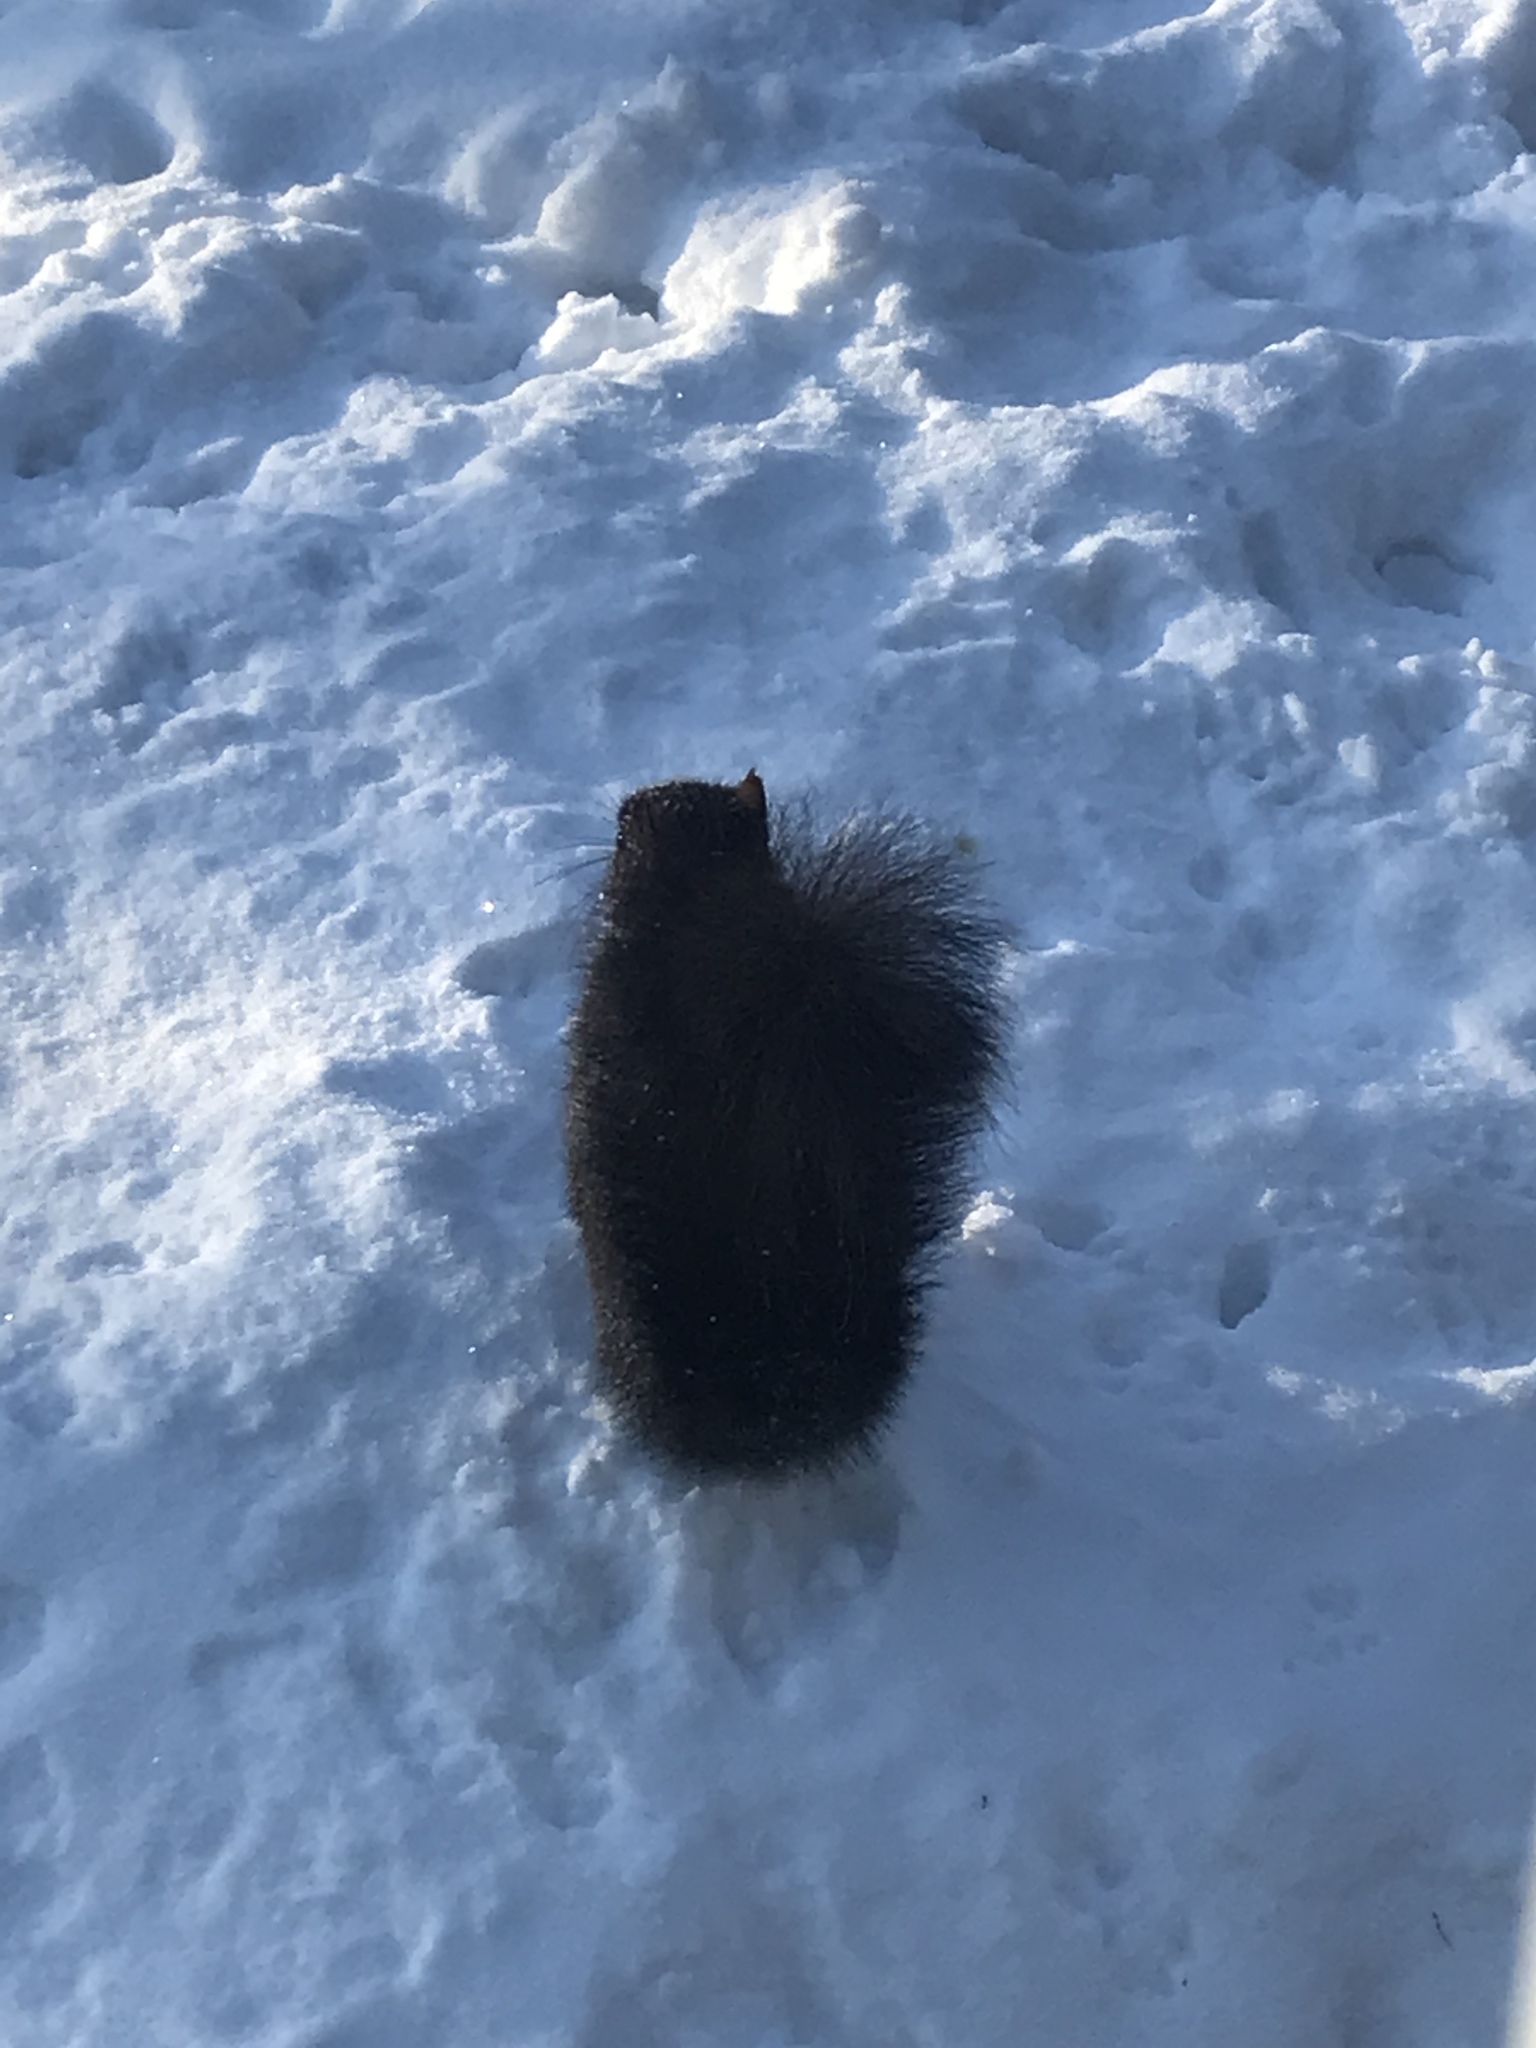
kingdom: Animalia
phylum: Chordata
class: Mammalia
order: Rodentia
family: Sciuridae
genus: Sciurus
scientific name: Sciurus carolinensis
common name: Eastern gray squirrel
